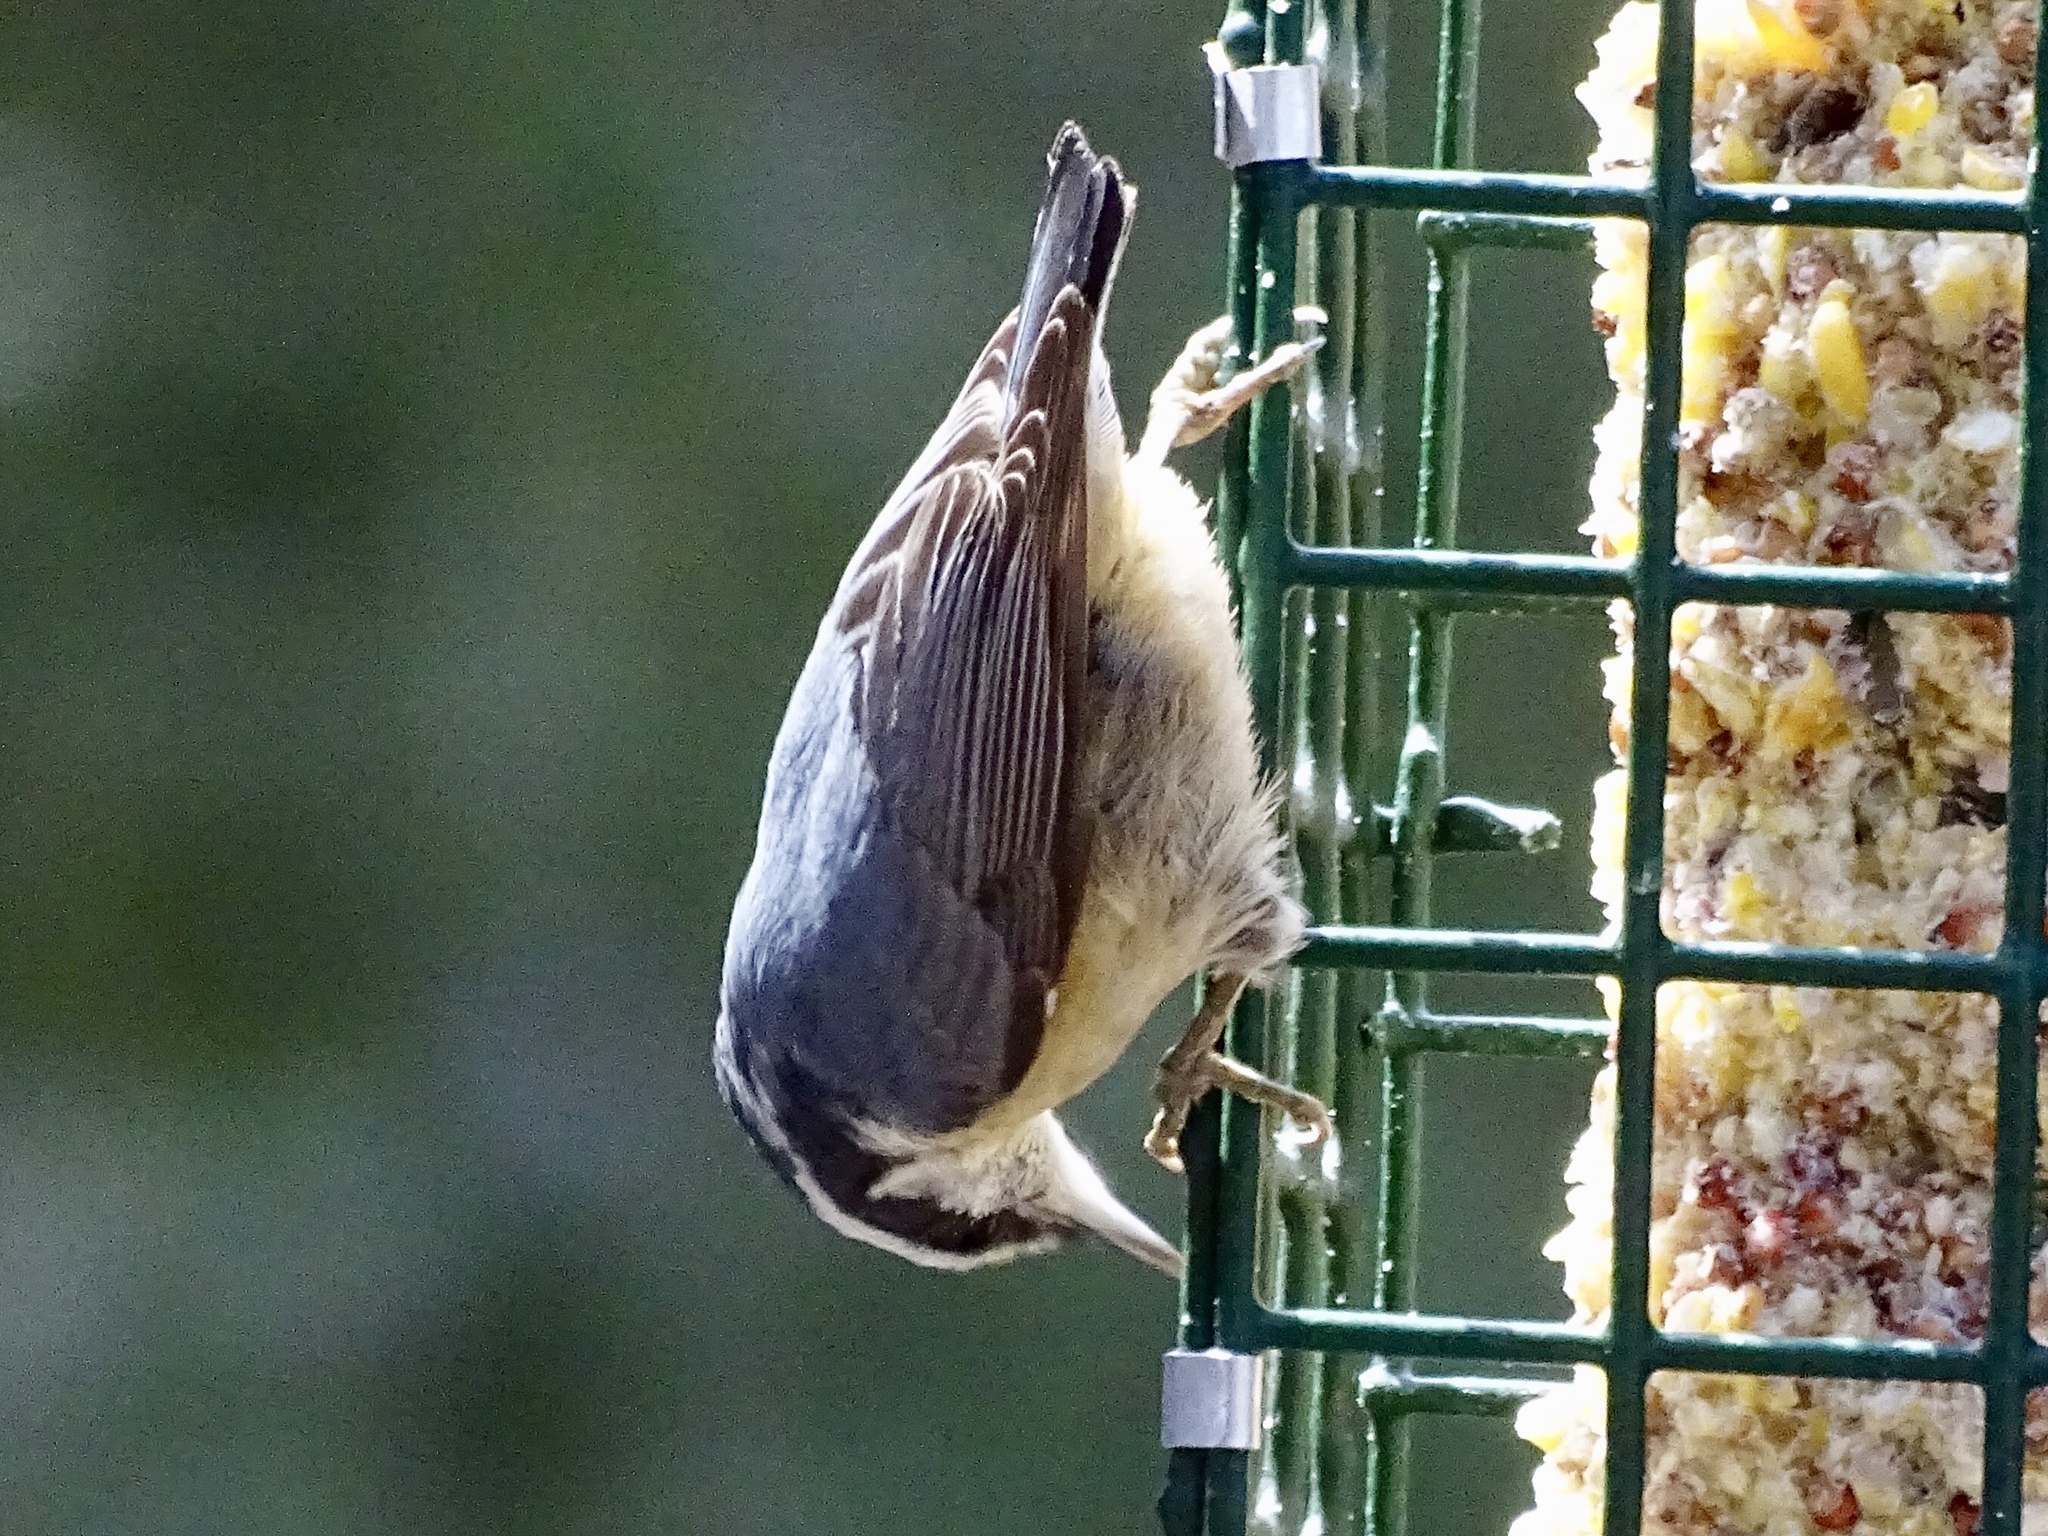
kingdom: Animalia
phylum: Chordata
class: Aves
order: Passeriformes
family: Sittidae
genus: Sitta
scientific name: Sitta canadensis
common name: Red-breasted nuthatch
